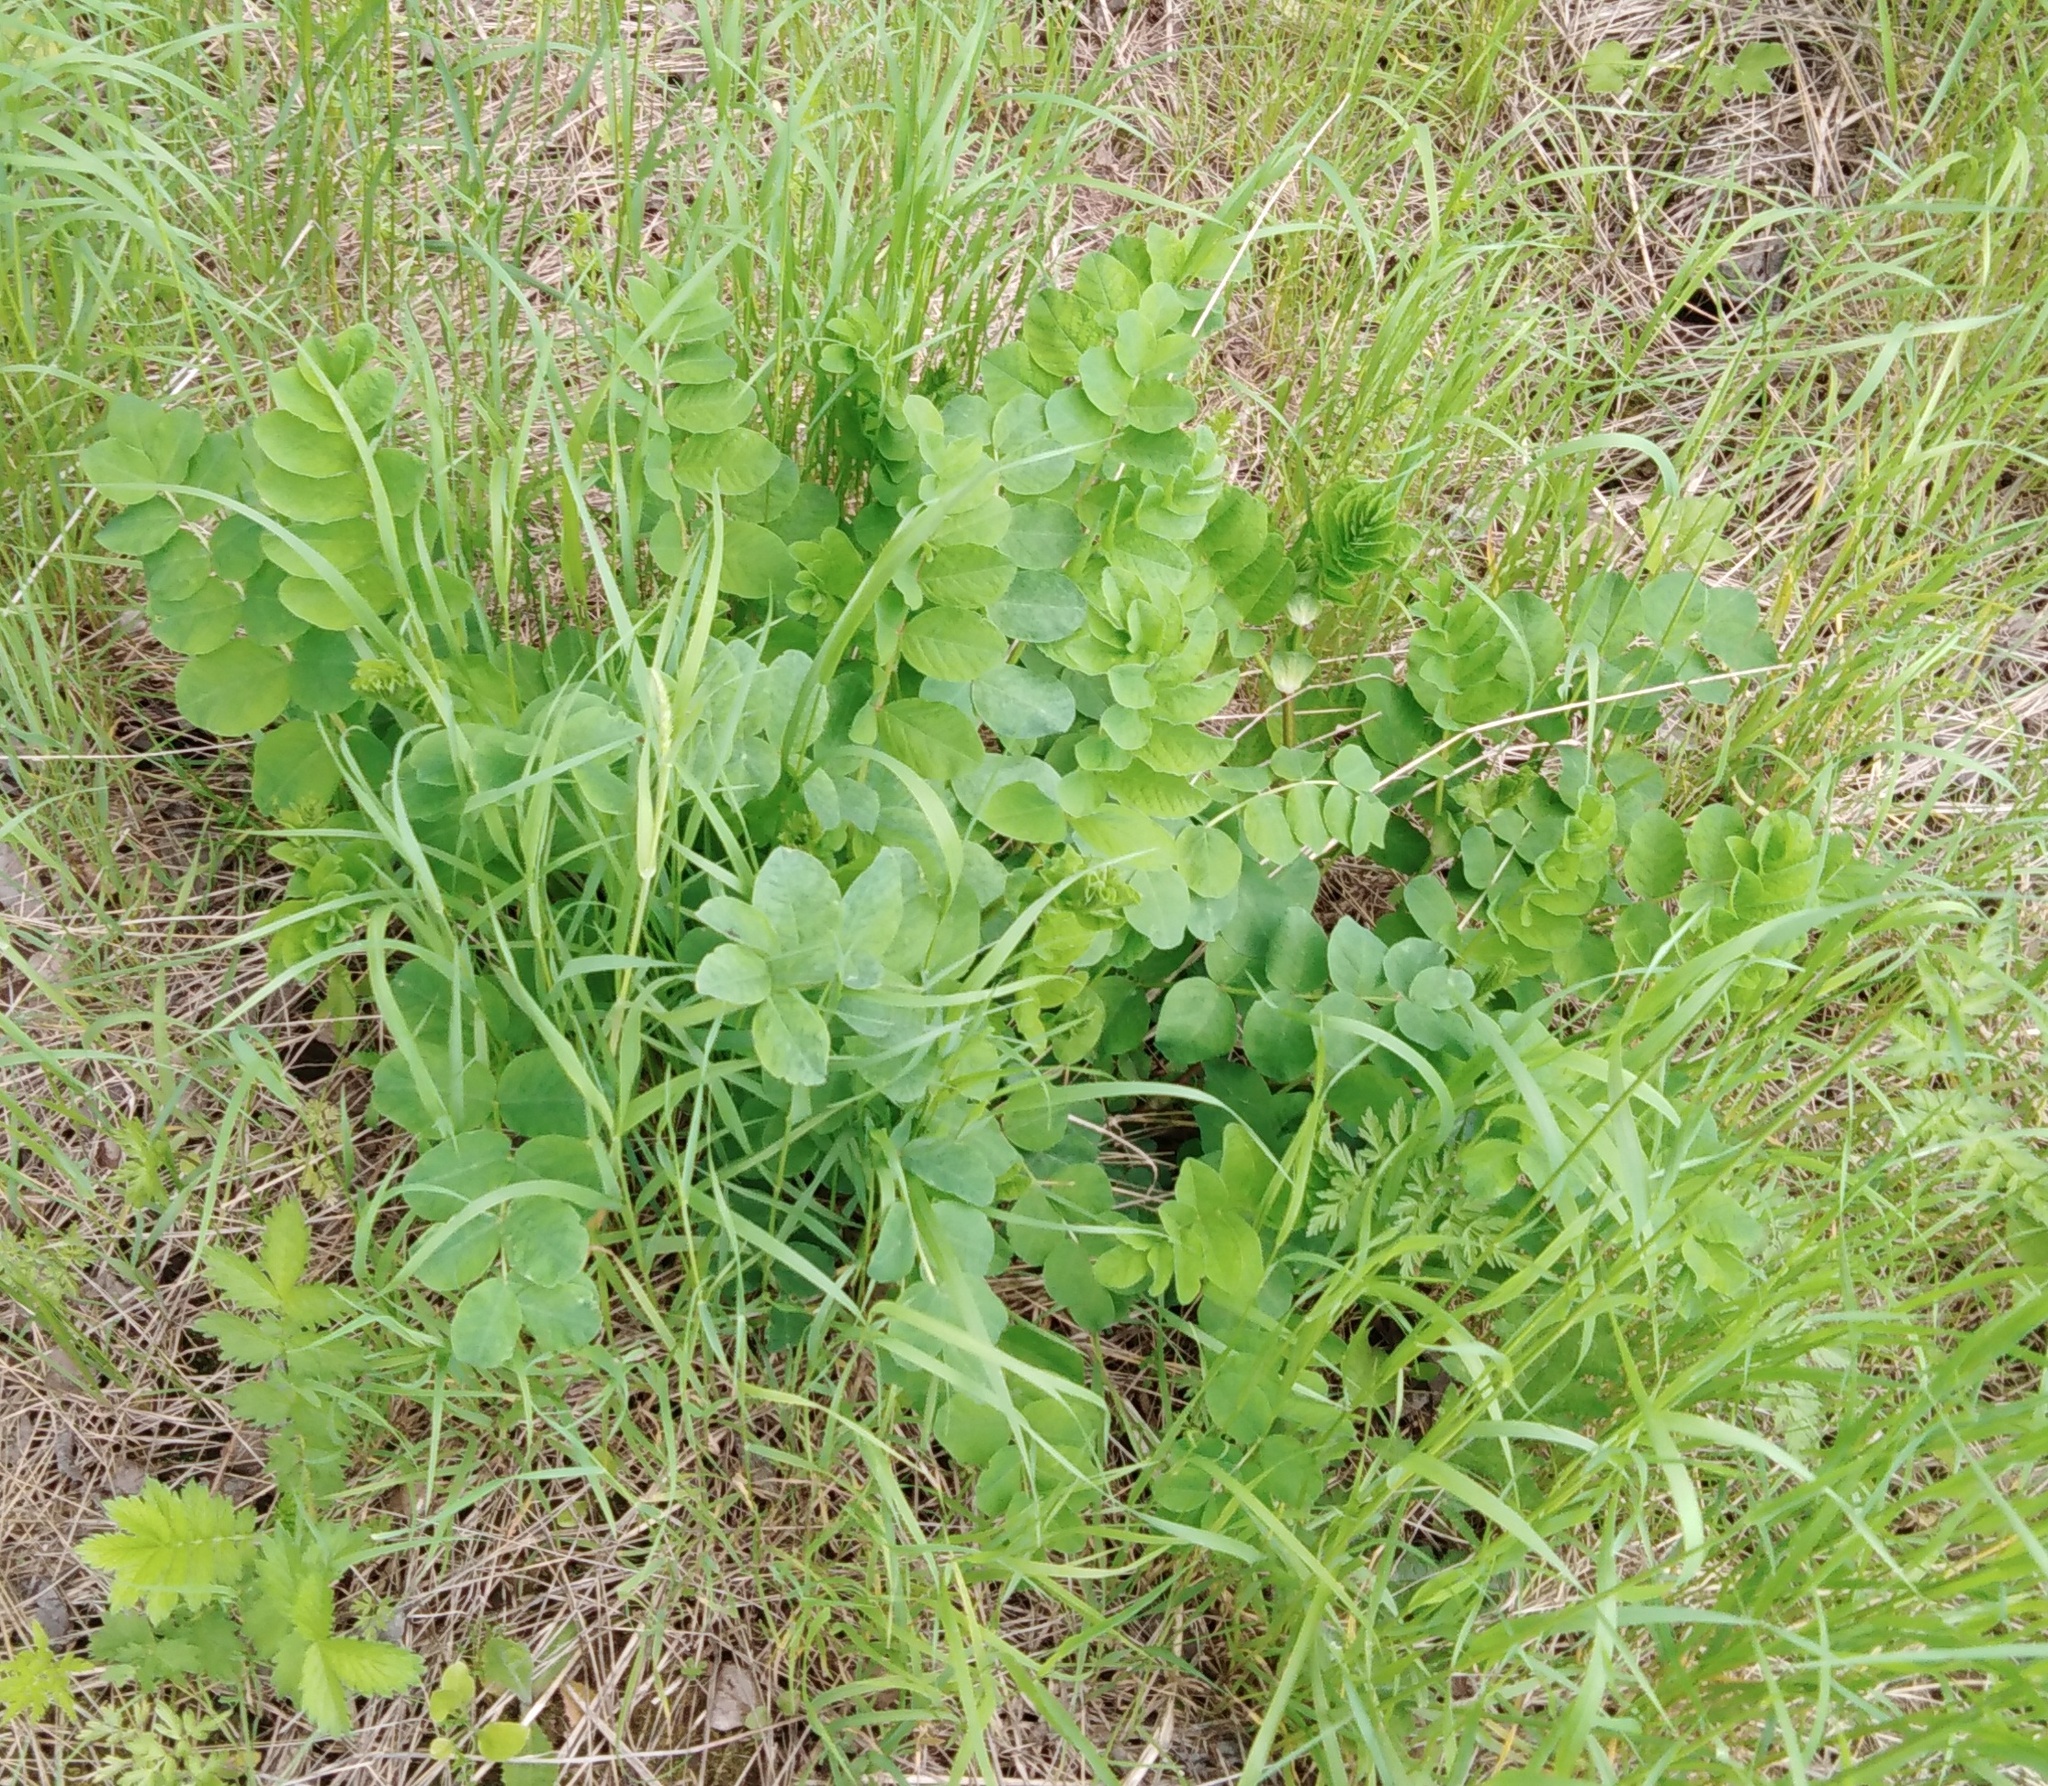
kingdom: Plantae
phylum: Tracheophyta
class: Magnoliopsida
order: Fabales
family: Fabaceae
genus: Astragalus
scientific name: Astragalus glycyphyllos
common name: Wild liquorice
